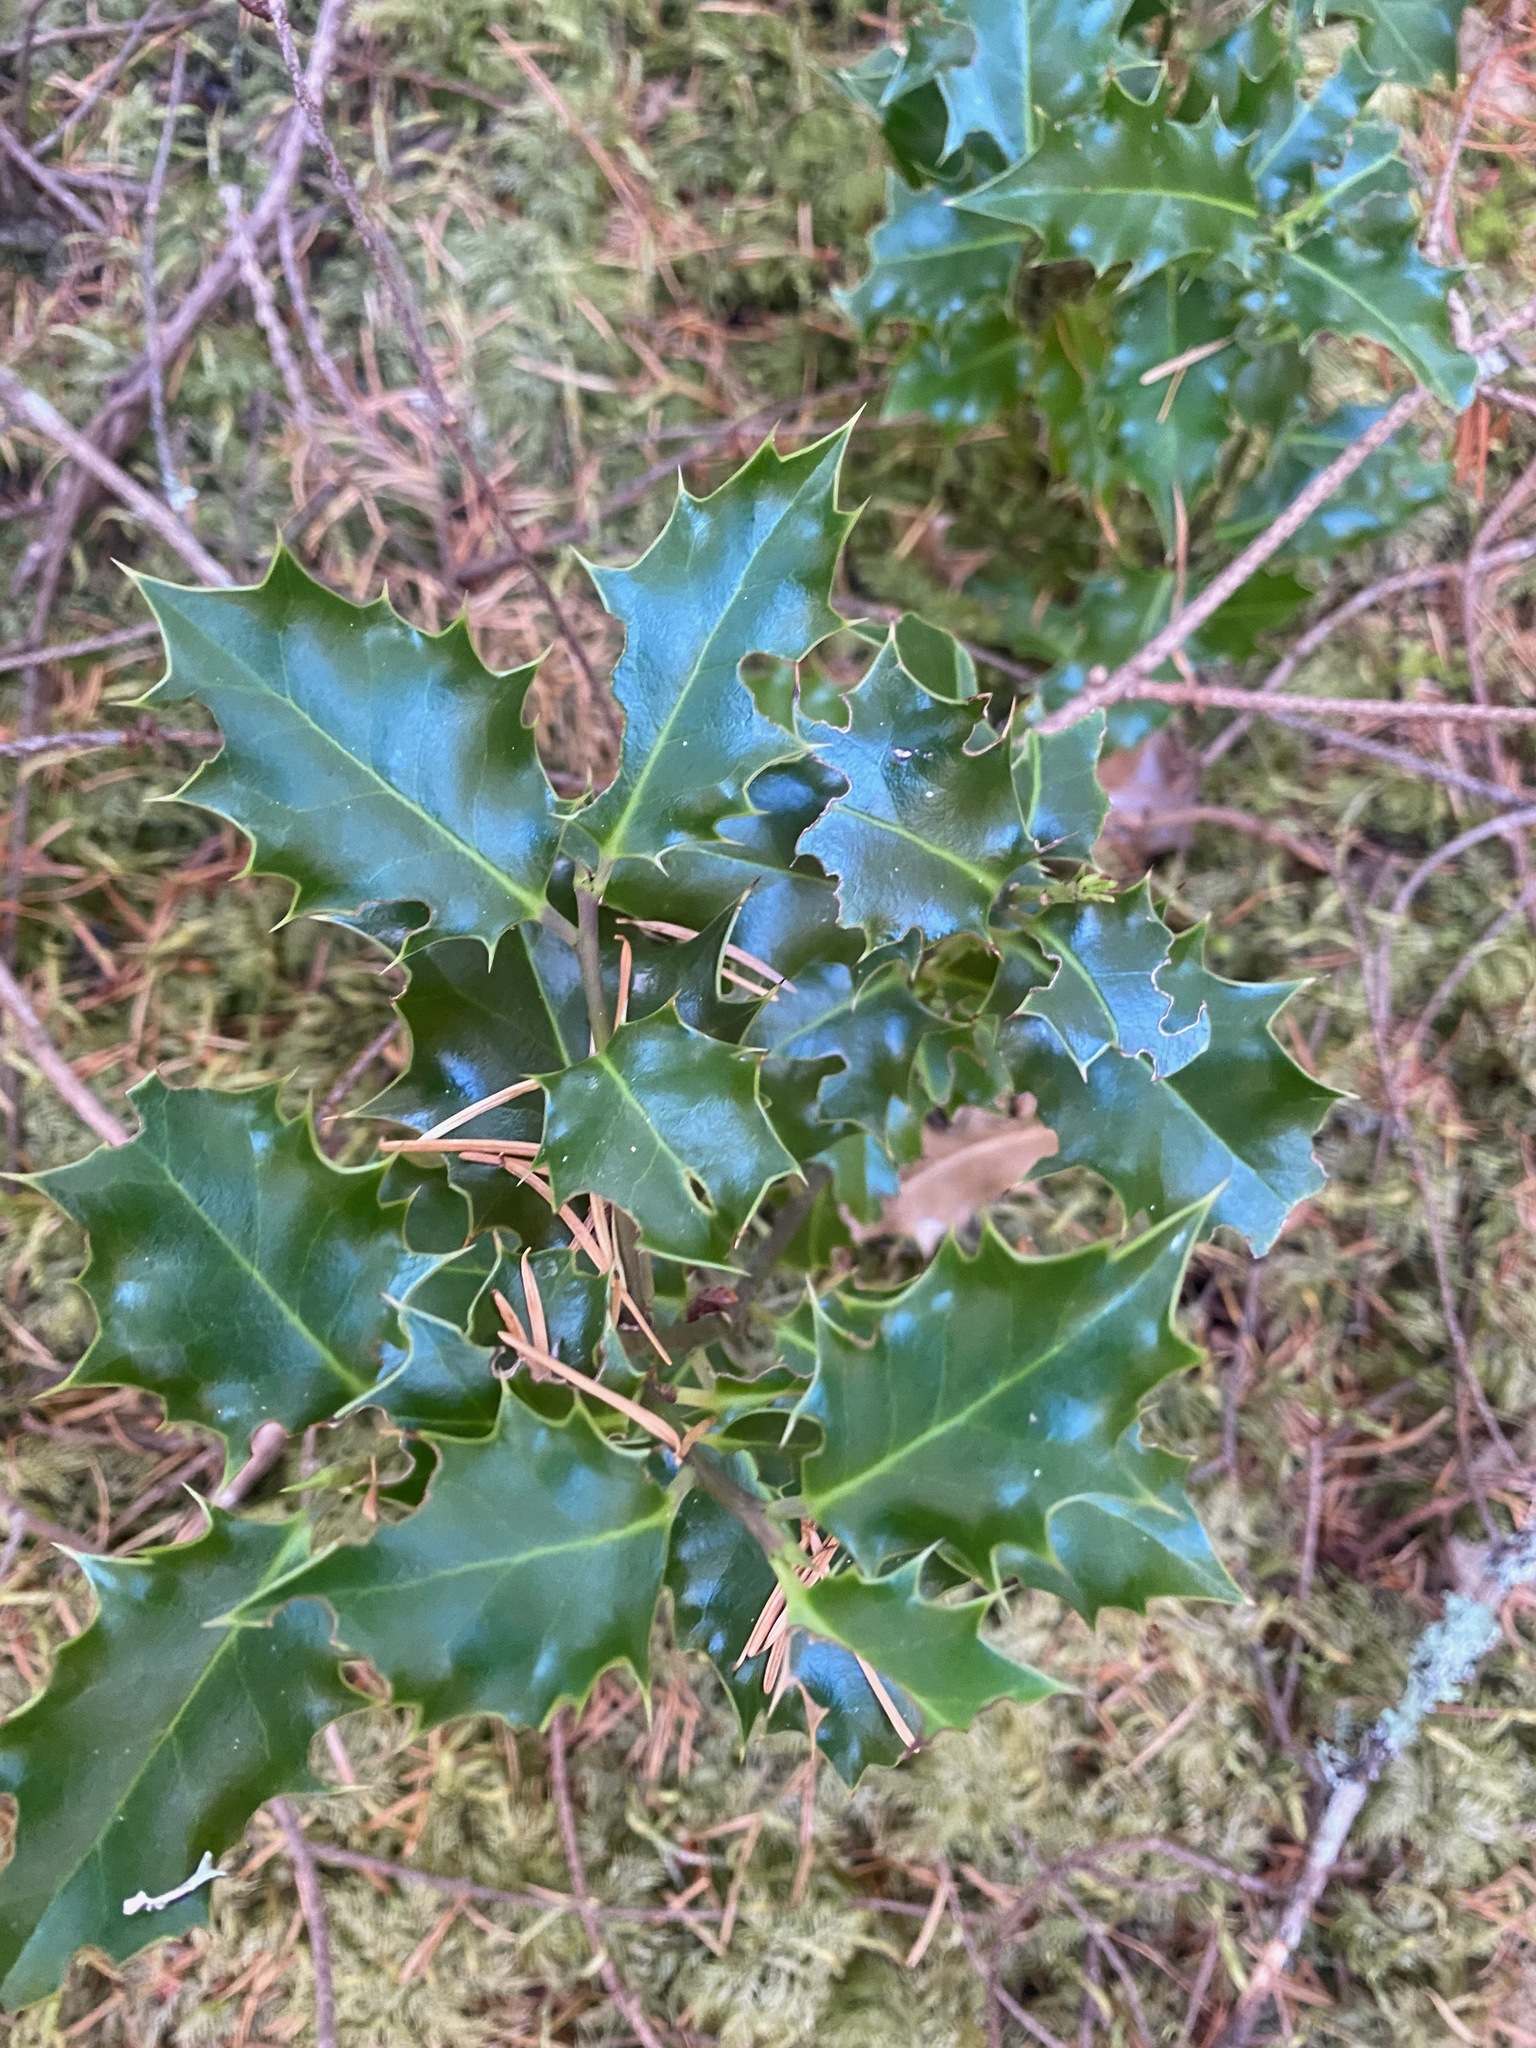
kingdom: Plantae
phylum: Tracheophyta
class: Magnoliopsida
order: Aquifoliales
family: Aquifoliaceae
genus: Ilex
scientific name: Ilex aquifolium
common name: English holly
